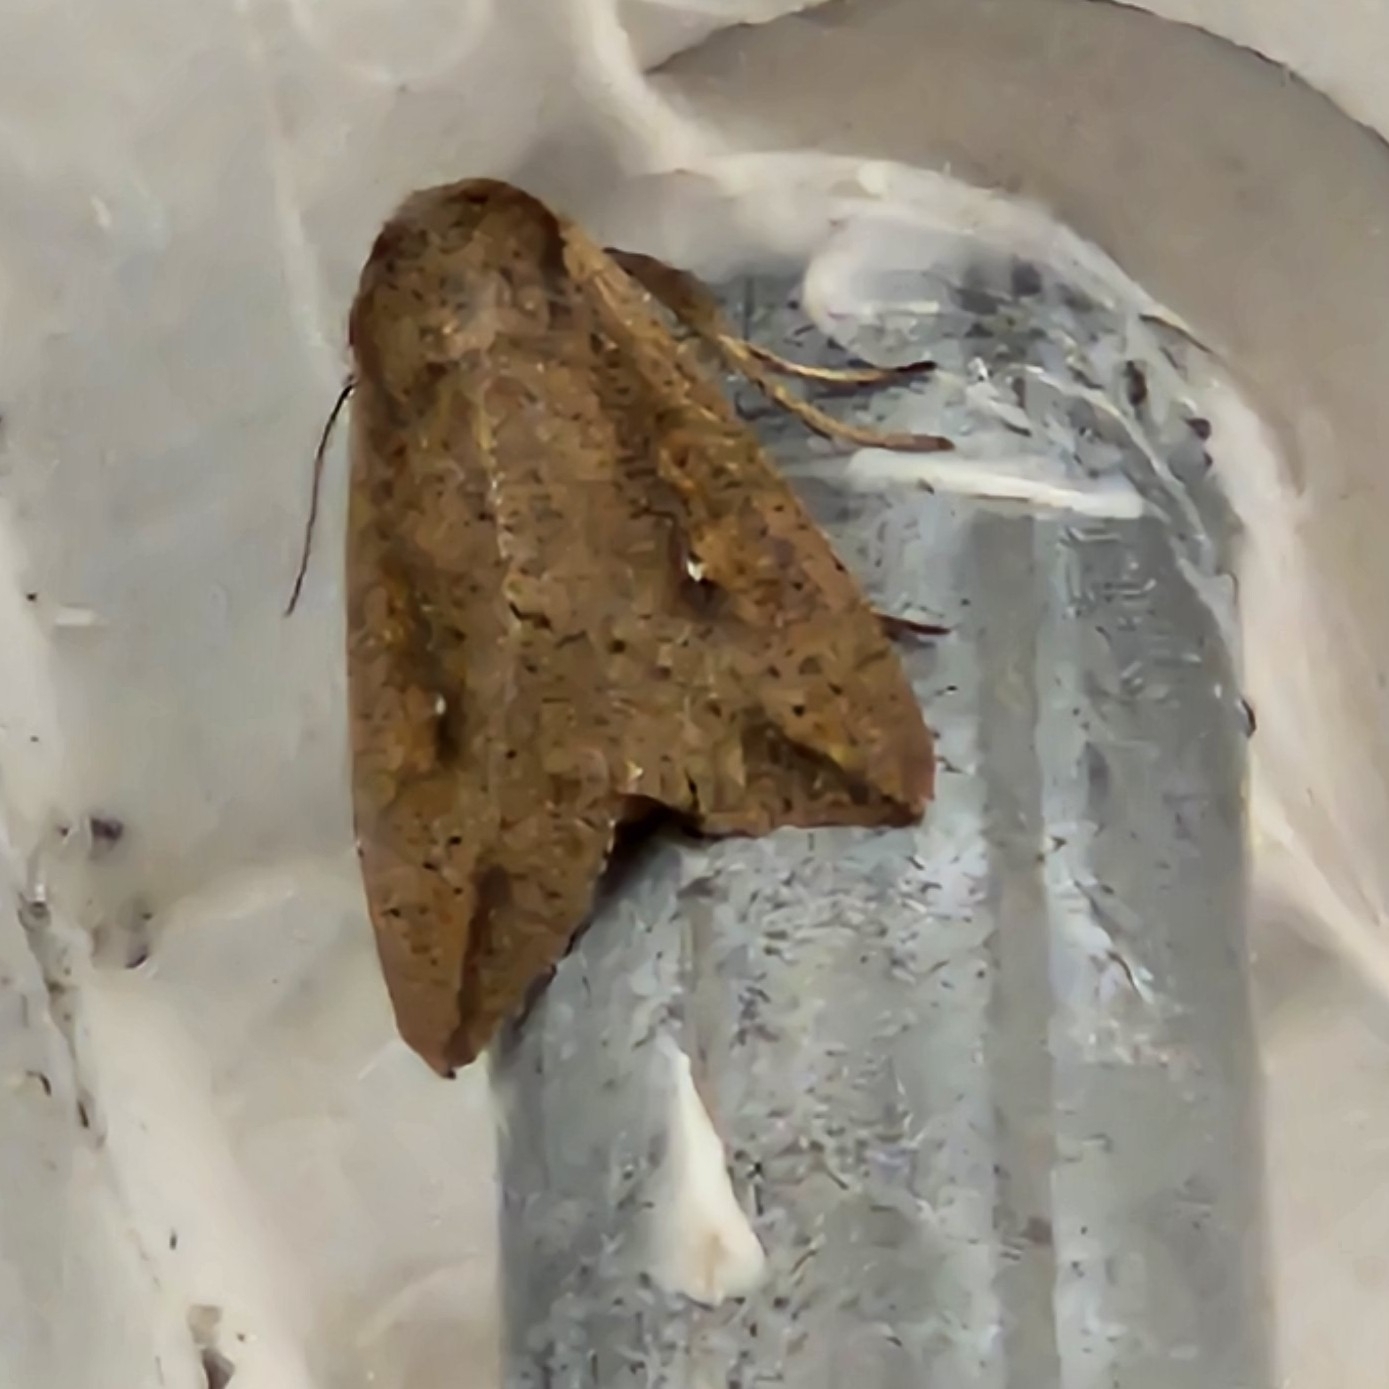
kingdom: Animalia
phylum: Arthropoda
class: Insecta
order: Lepidoptera
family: Noctuidae
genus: Mythimna
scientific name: Mythimna unipuncta
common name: White-speck
